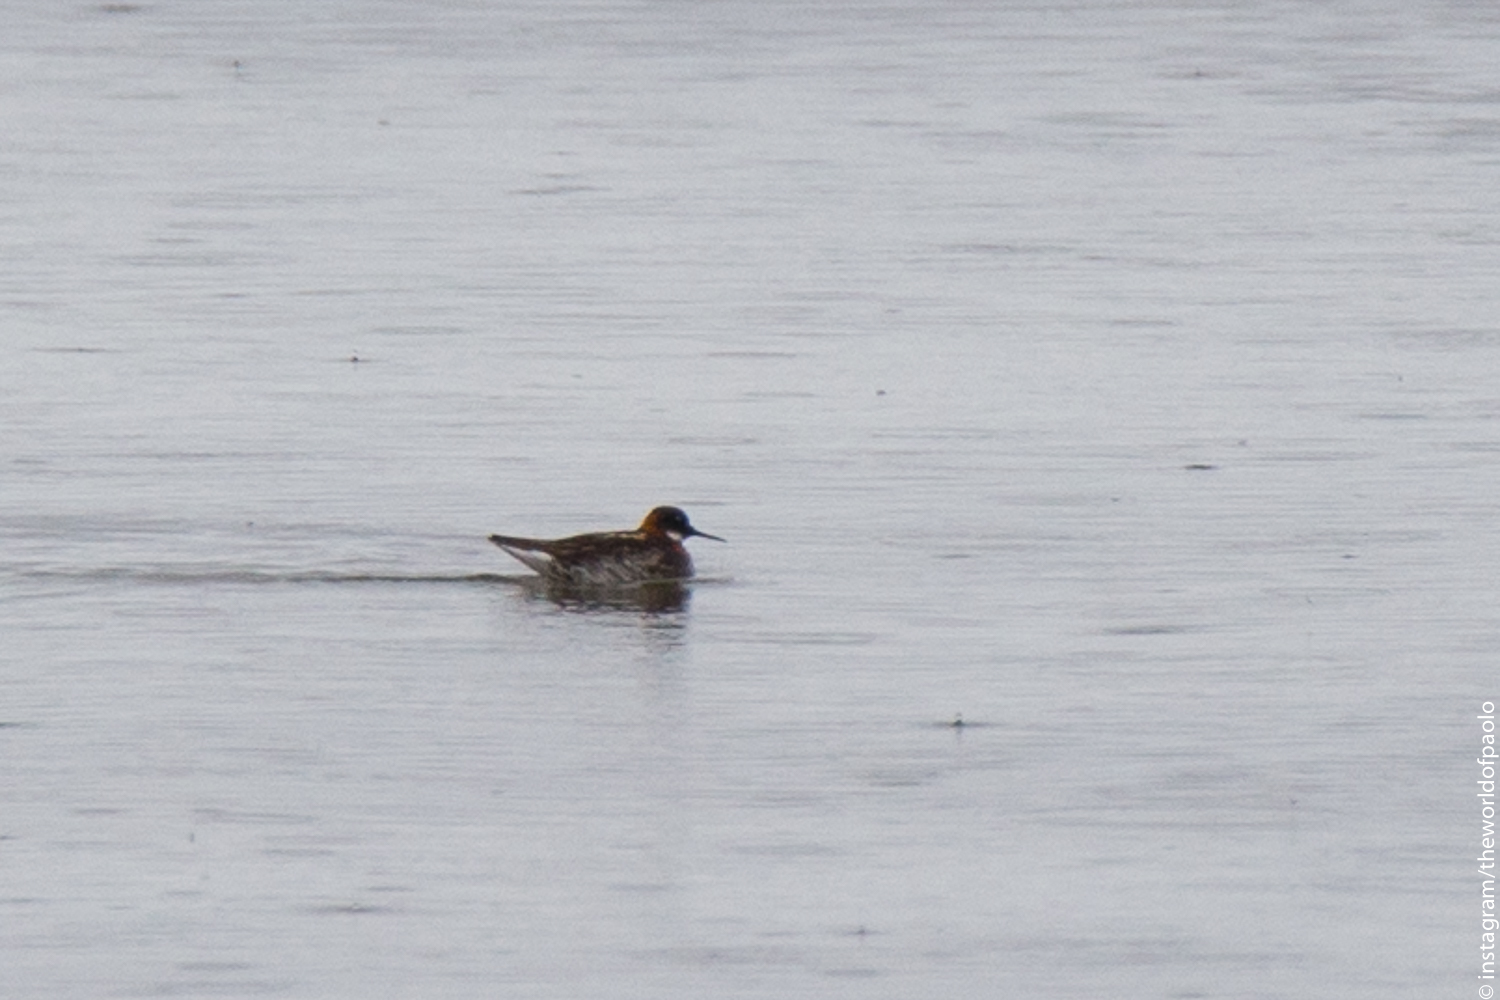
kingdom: Animalia
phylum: Chordata
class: Aves
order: Charadriiformes
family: Scolopacidae
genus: Phalaropus
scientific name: Phalaropus lobatus
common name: Red-necked phalarope
